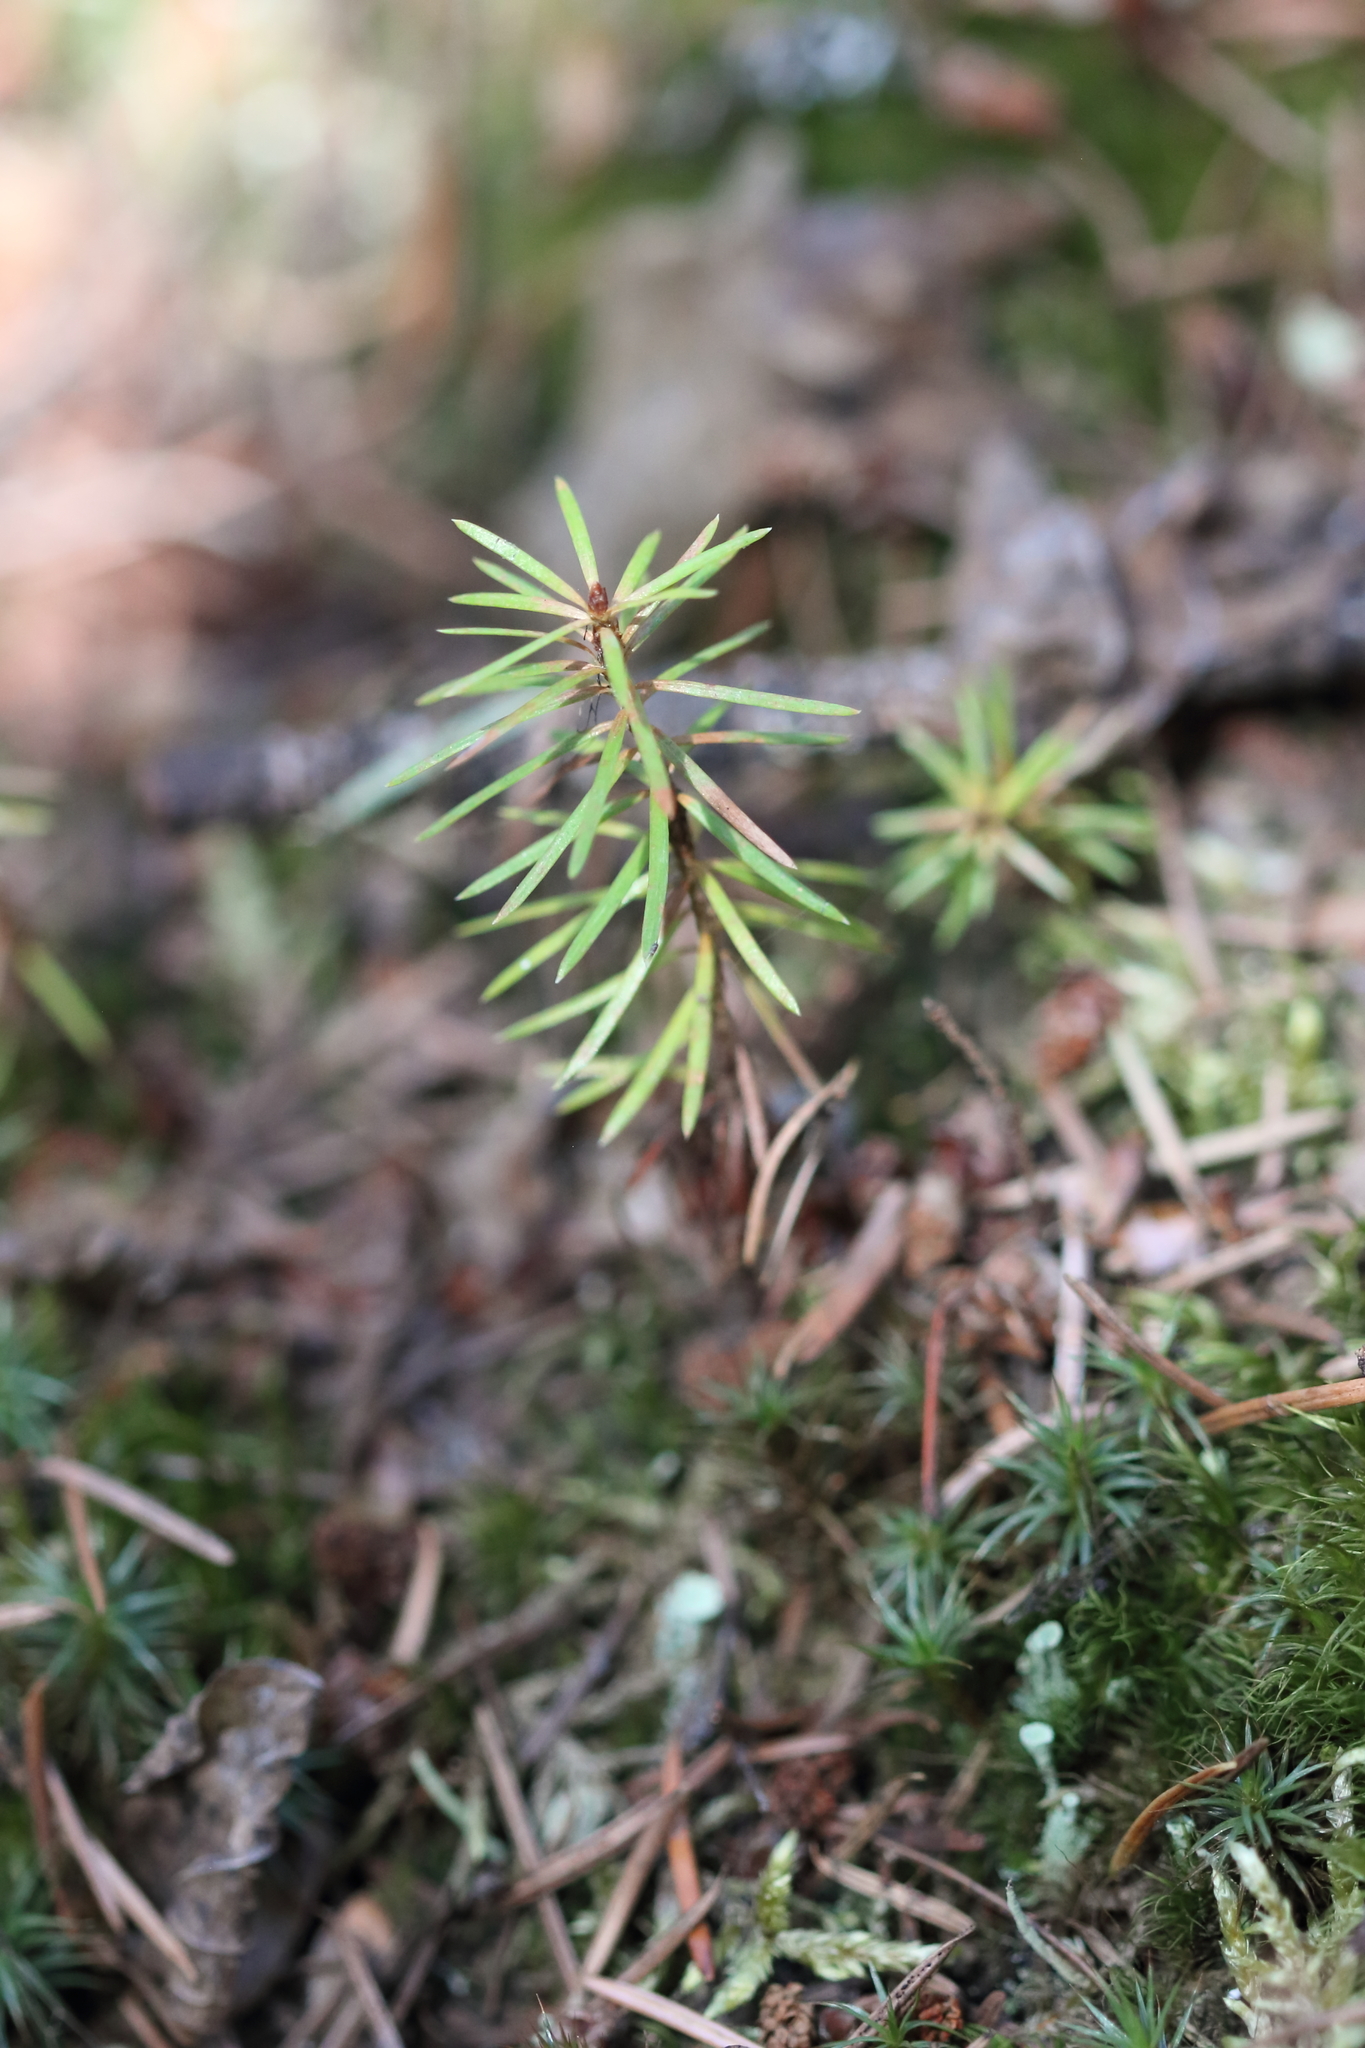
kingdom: Plantae
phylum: Tracheophyta
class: Pinopsida
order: Pinales
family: Pinaceae
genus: Pseudotsuga
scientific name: Pseudotsuga menziesii
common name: Douglas fir
